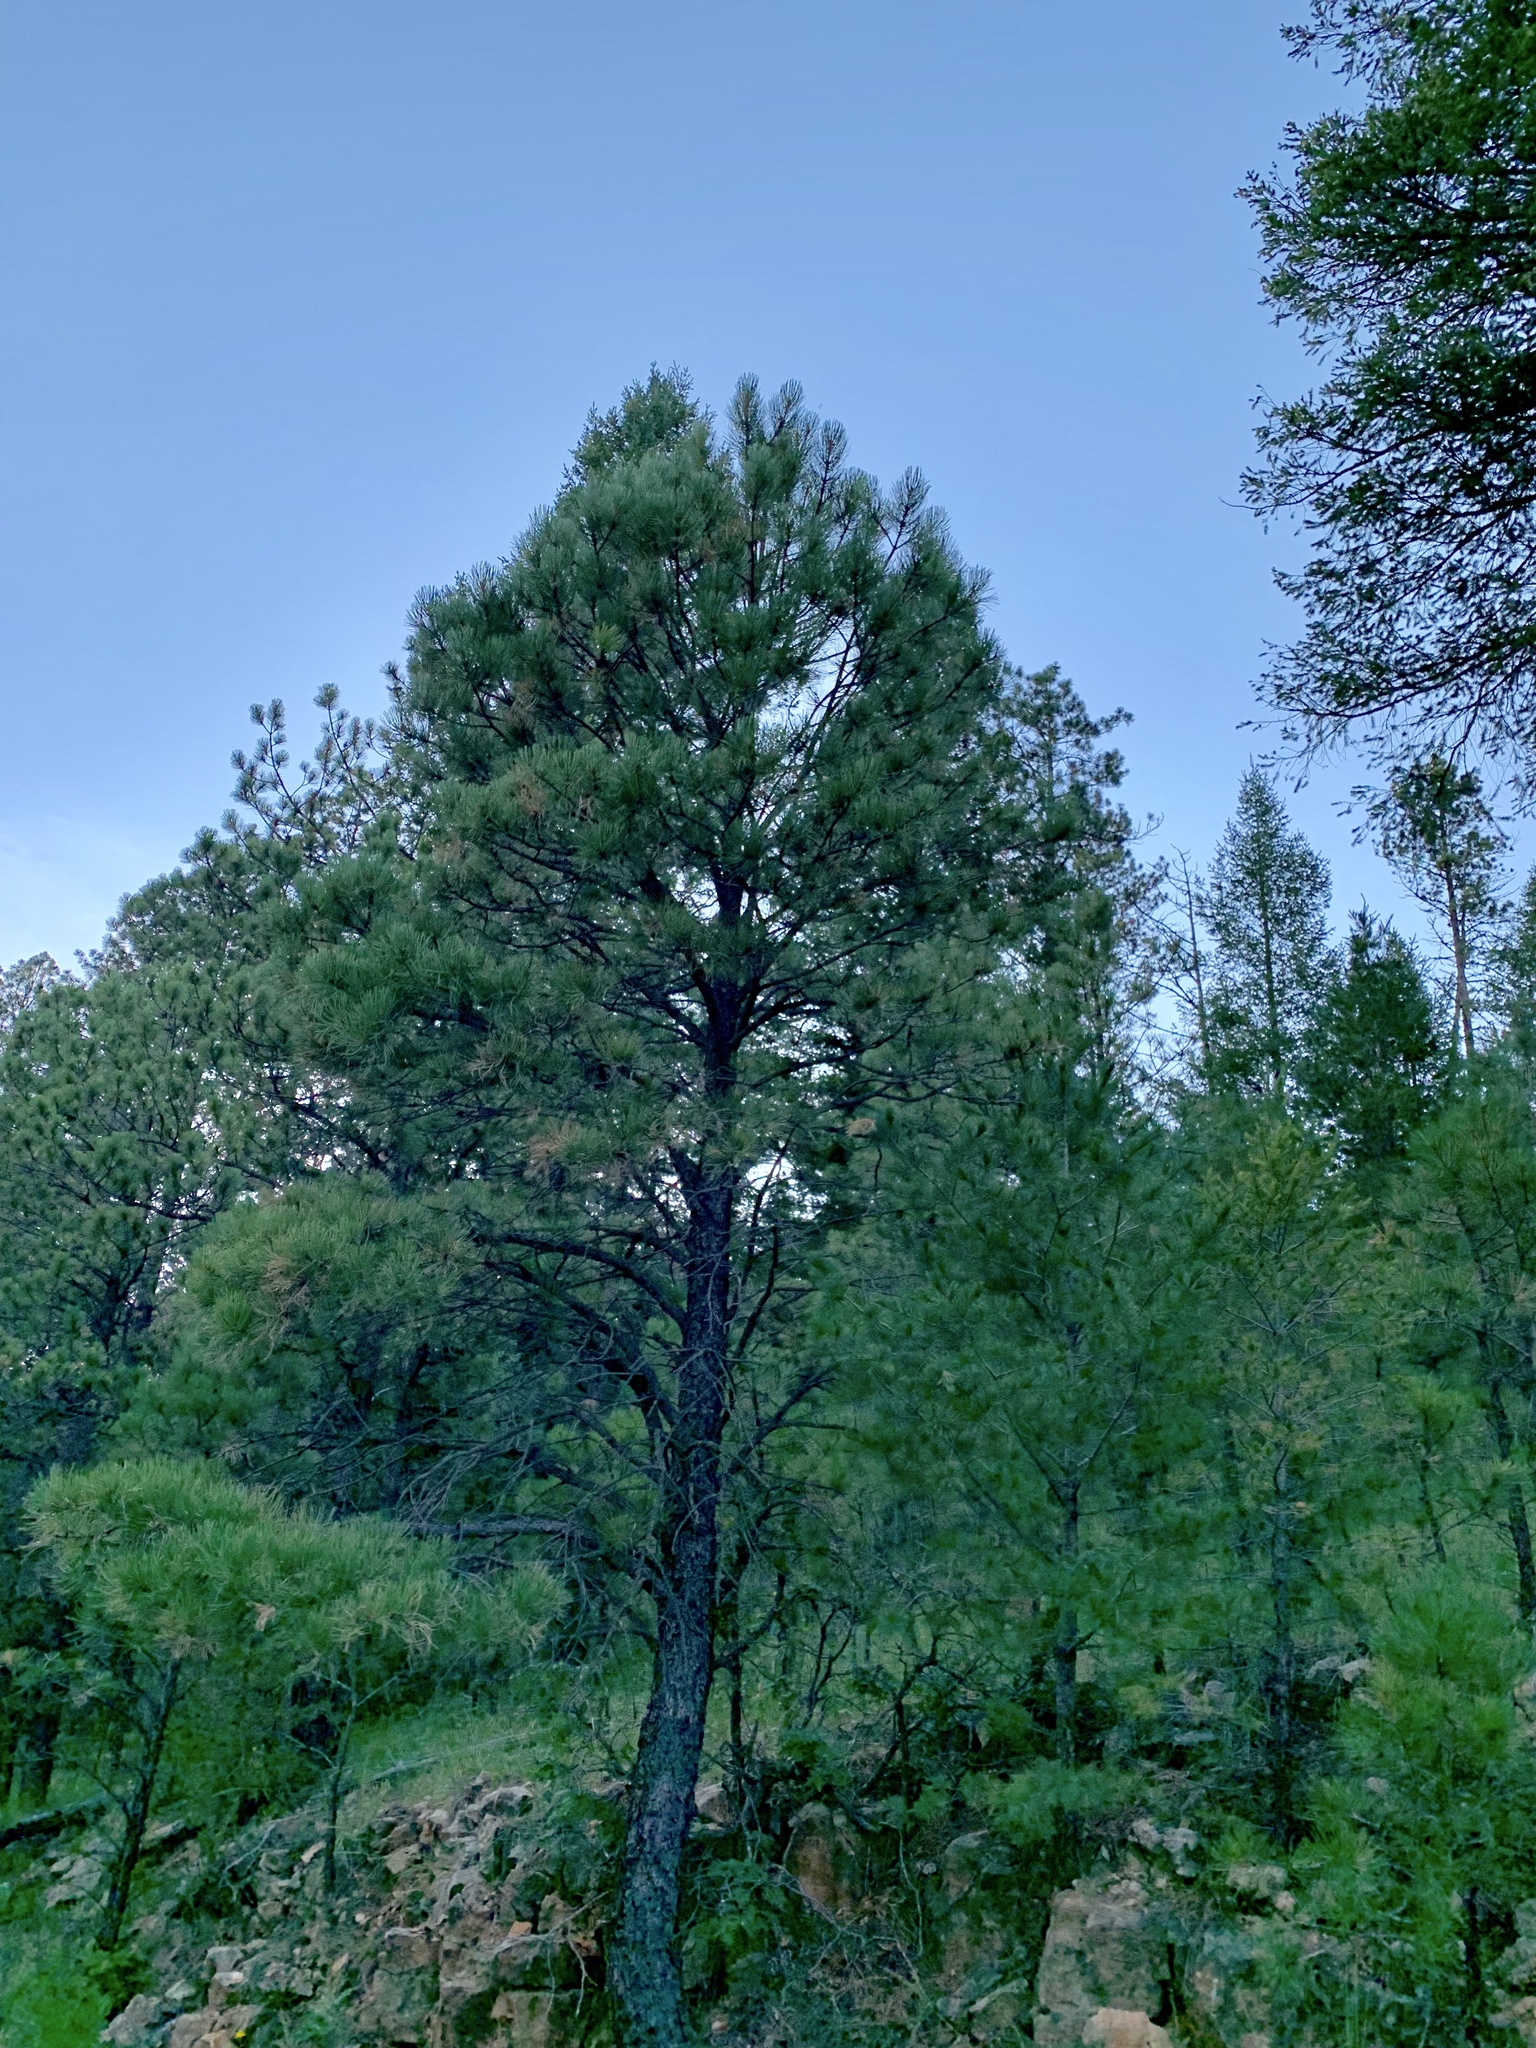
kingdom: Plantae
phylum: Tracheophyta
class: Pinopsida
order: Pinales
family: Pinaceae
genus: Pinus
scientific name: Pinus ponderosa
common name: Western yellow-pine
